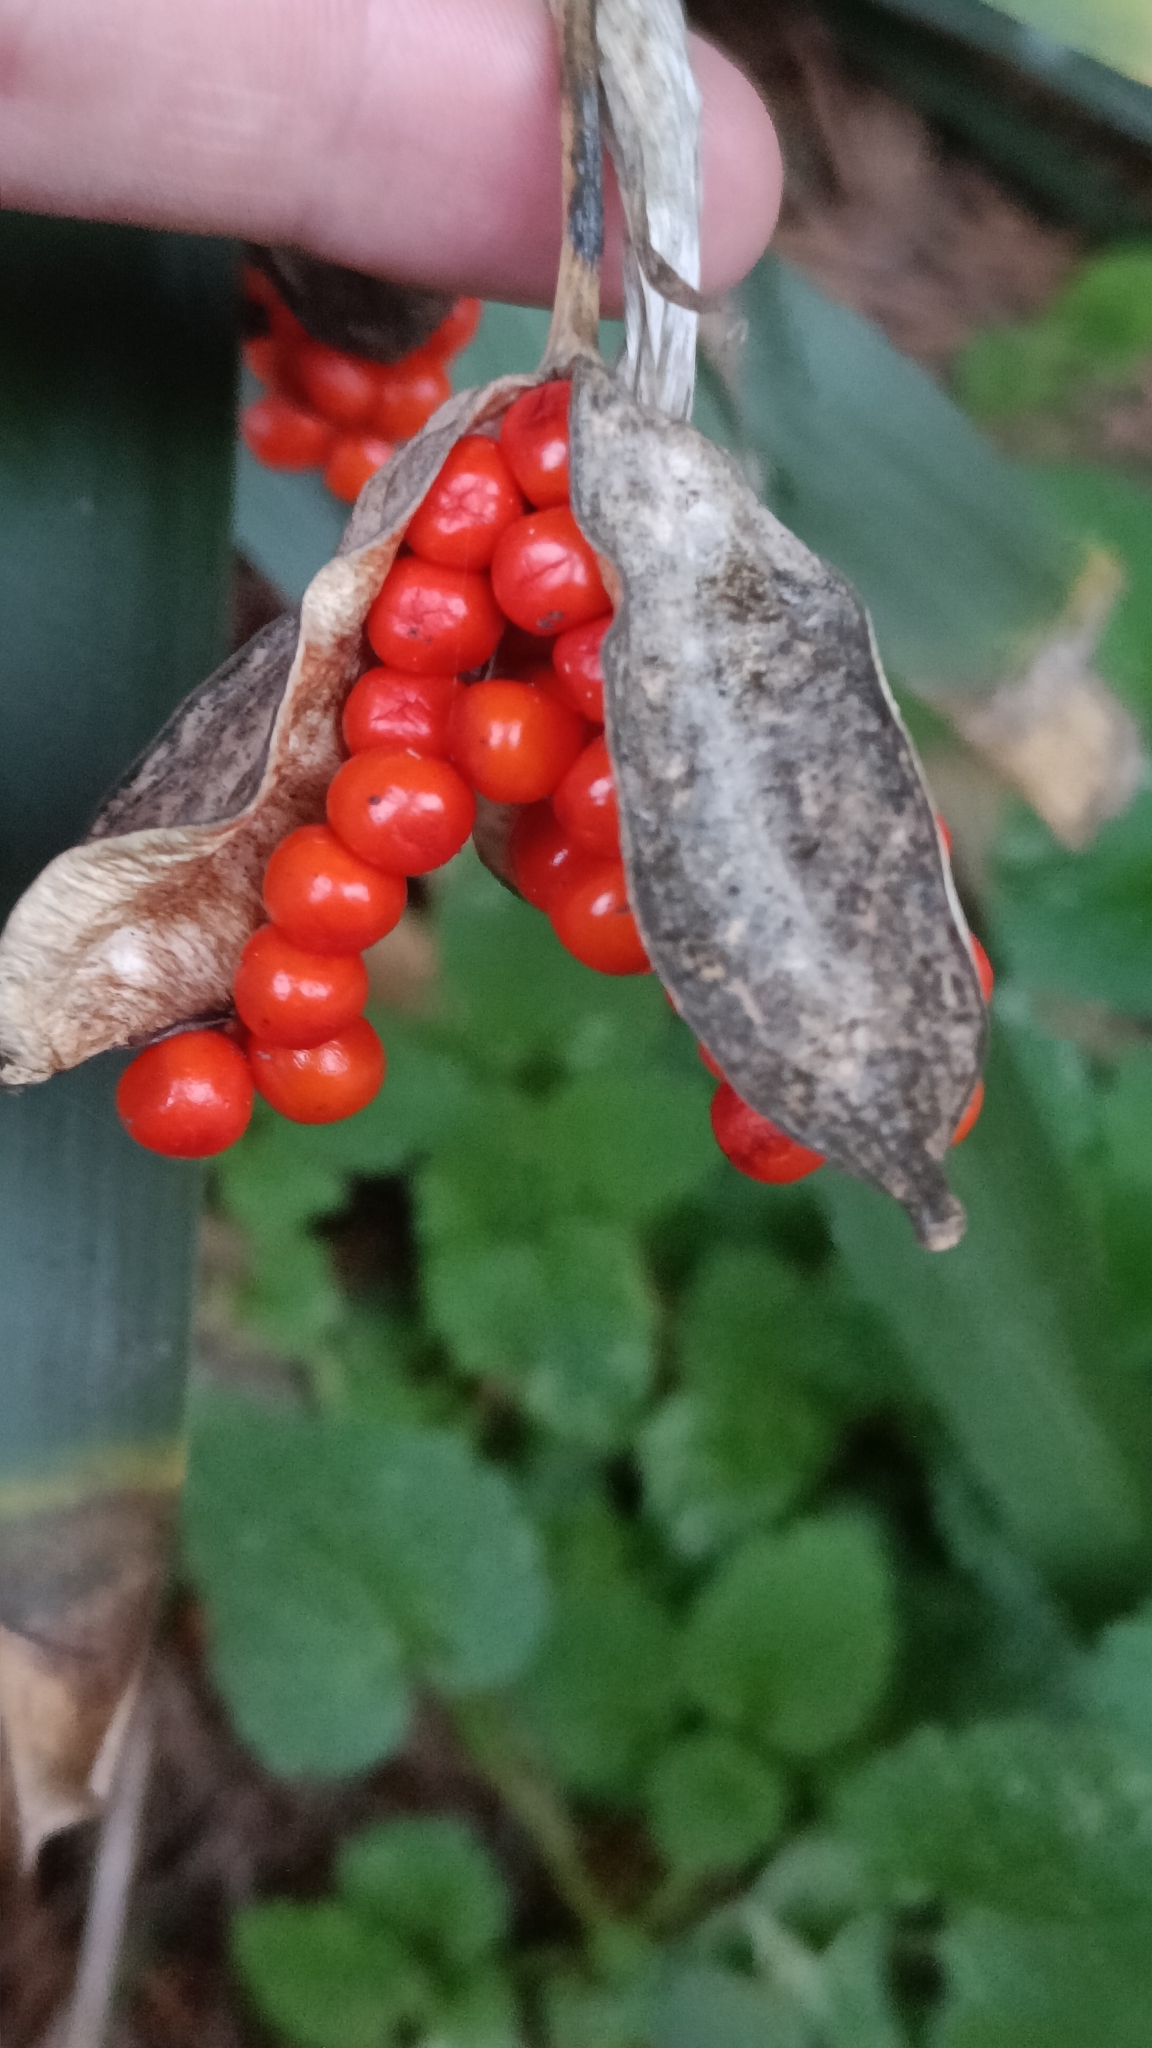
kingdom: Plantae
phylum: Tracheophyta
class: Liliopsida
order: Asparagales
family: Iridaceae
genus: Iris
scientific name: Iris foetidissima
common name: Stinking iris
